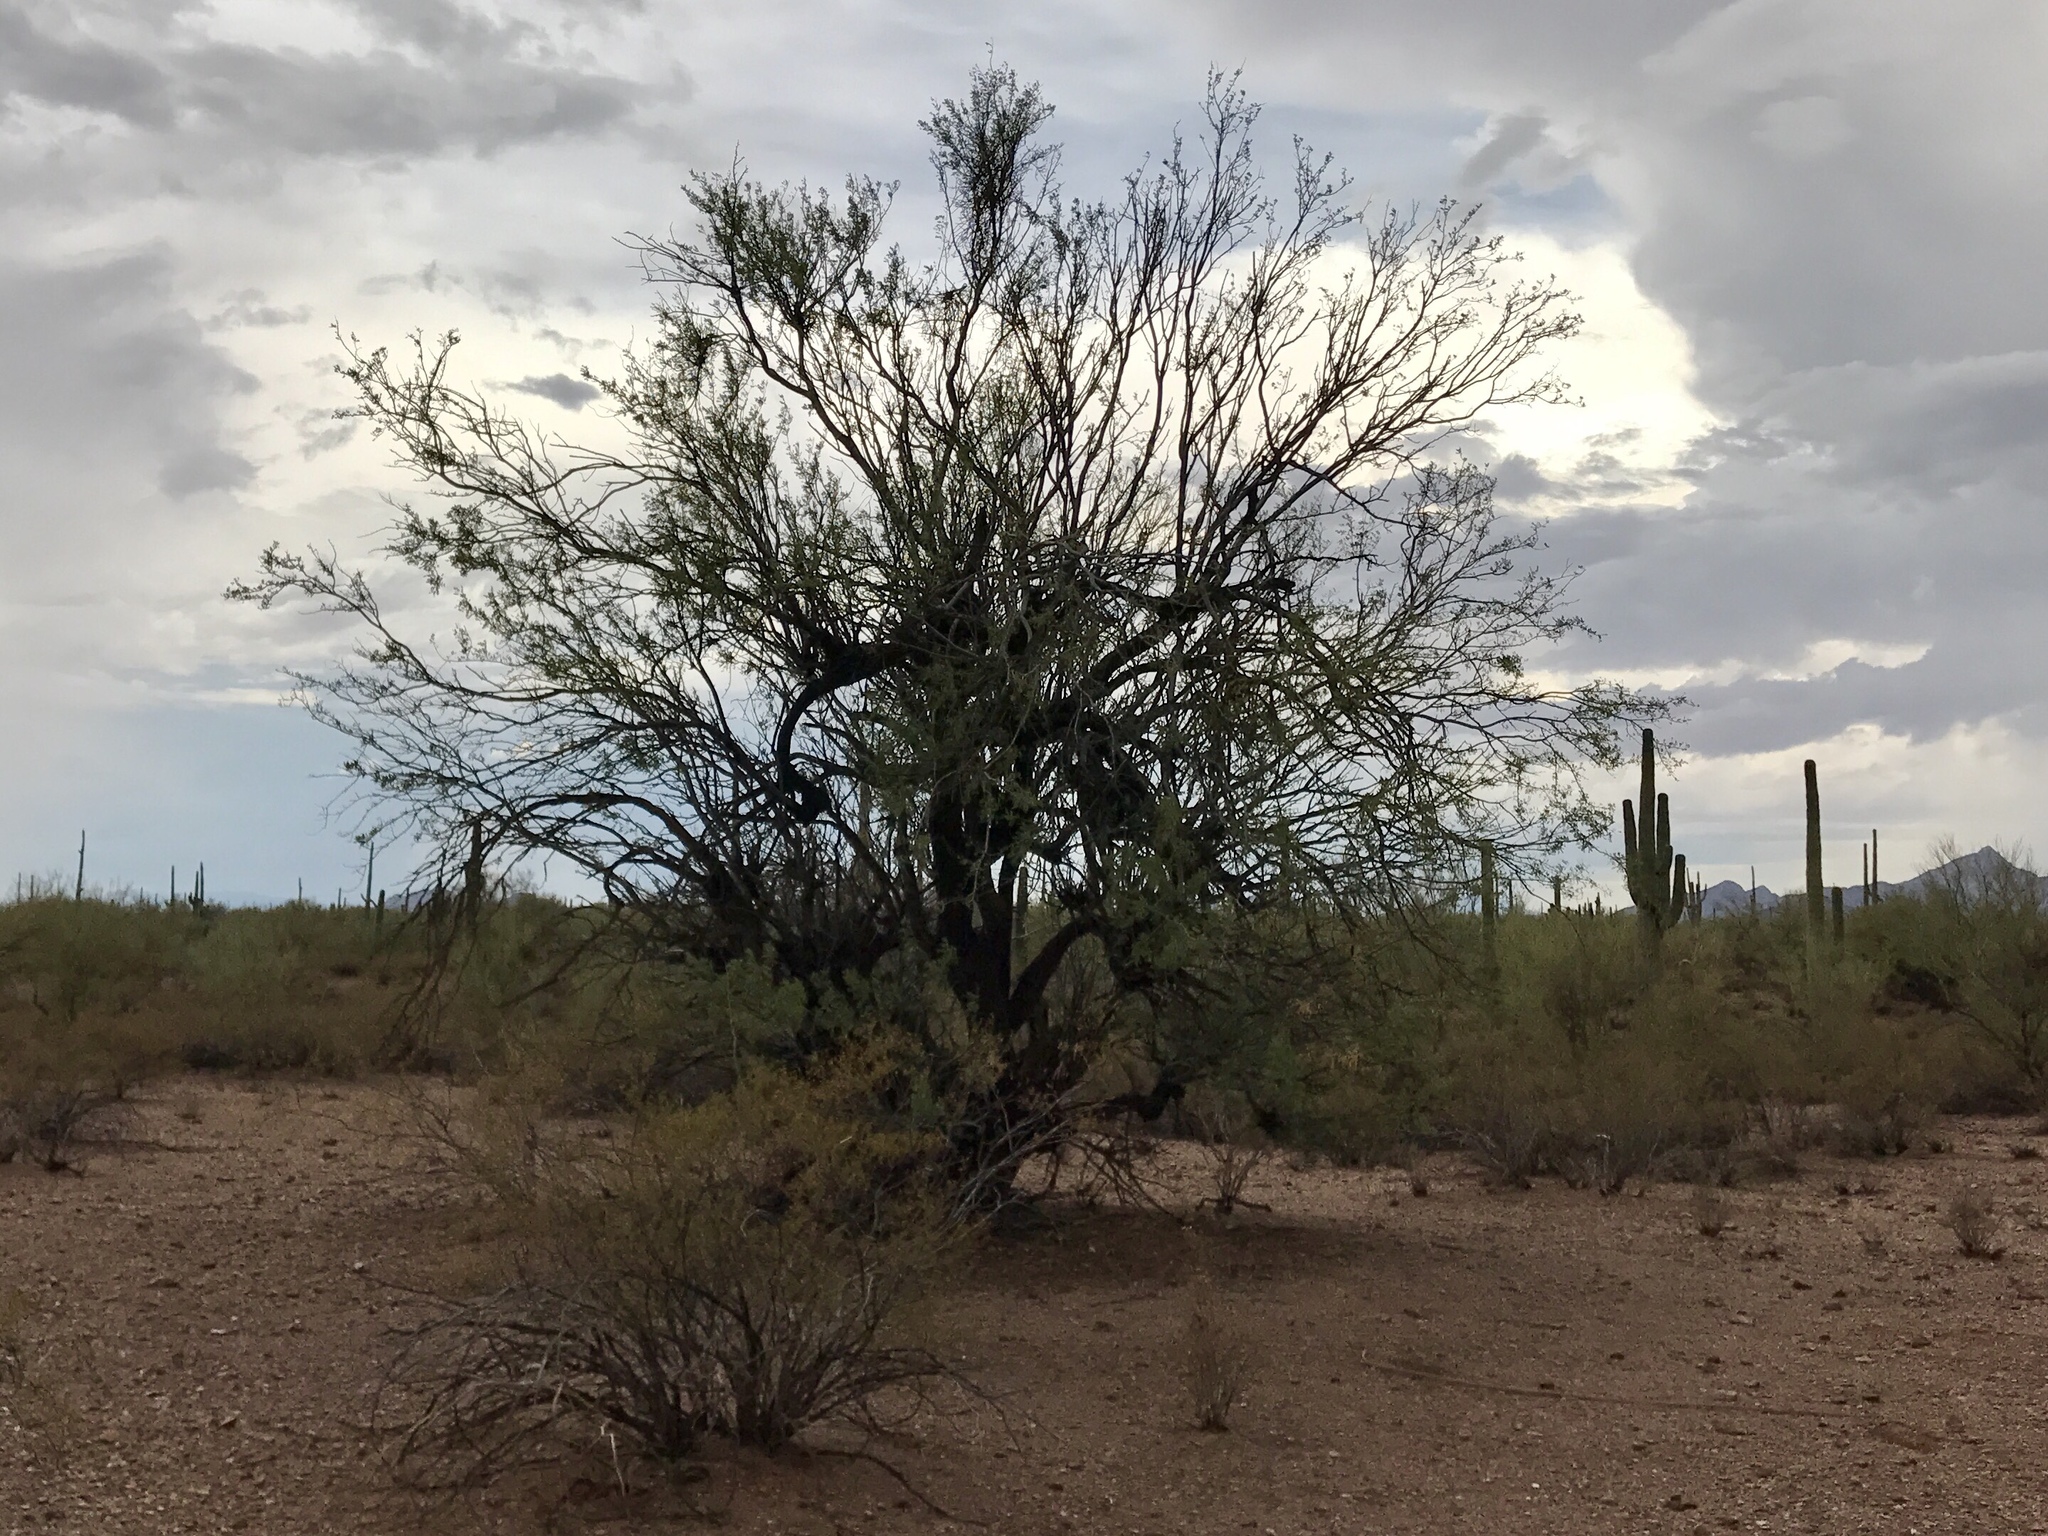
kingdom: Plantae
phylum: Tracheophyta
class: Magnoliopsida
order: Fabales
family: Fabaceae
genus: Olneya
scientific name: Olneya tesota
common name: Desert ironwood
